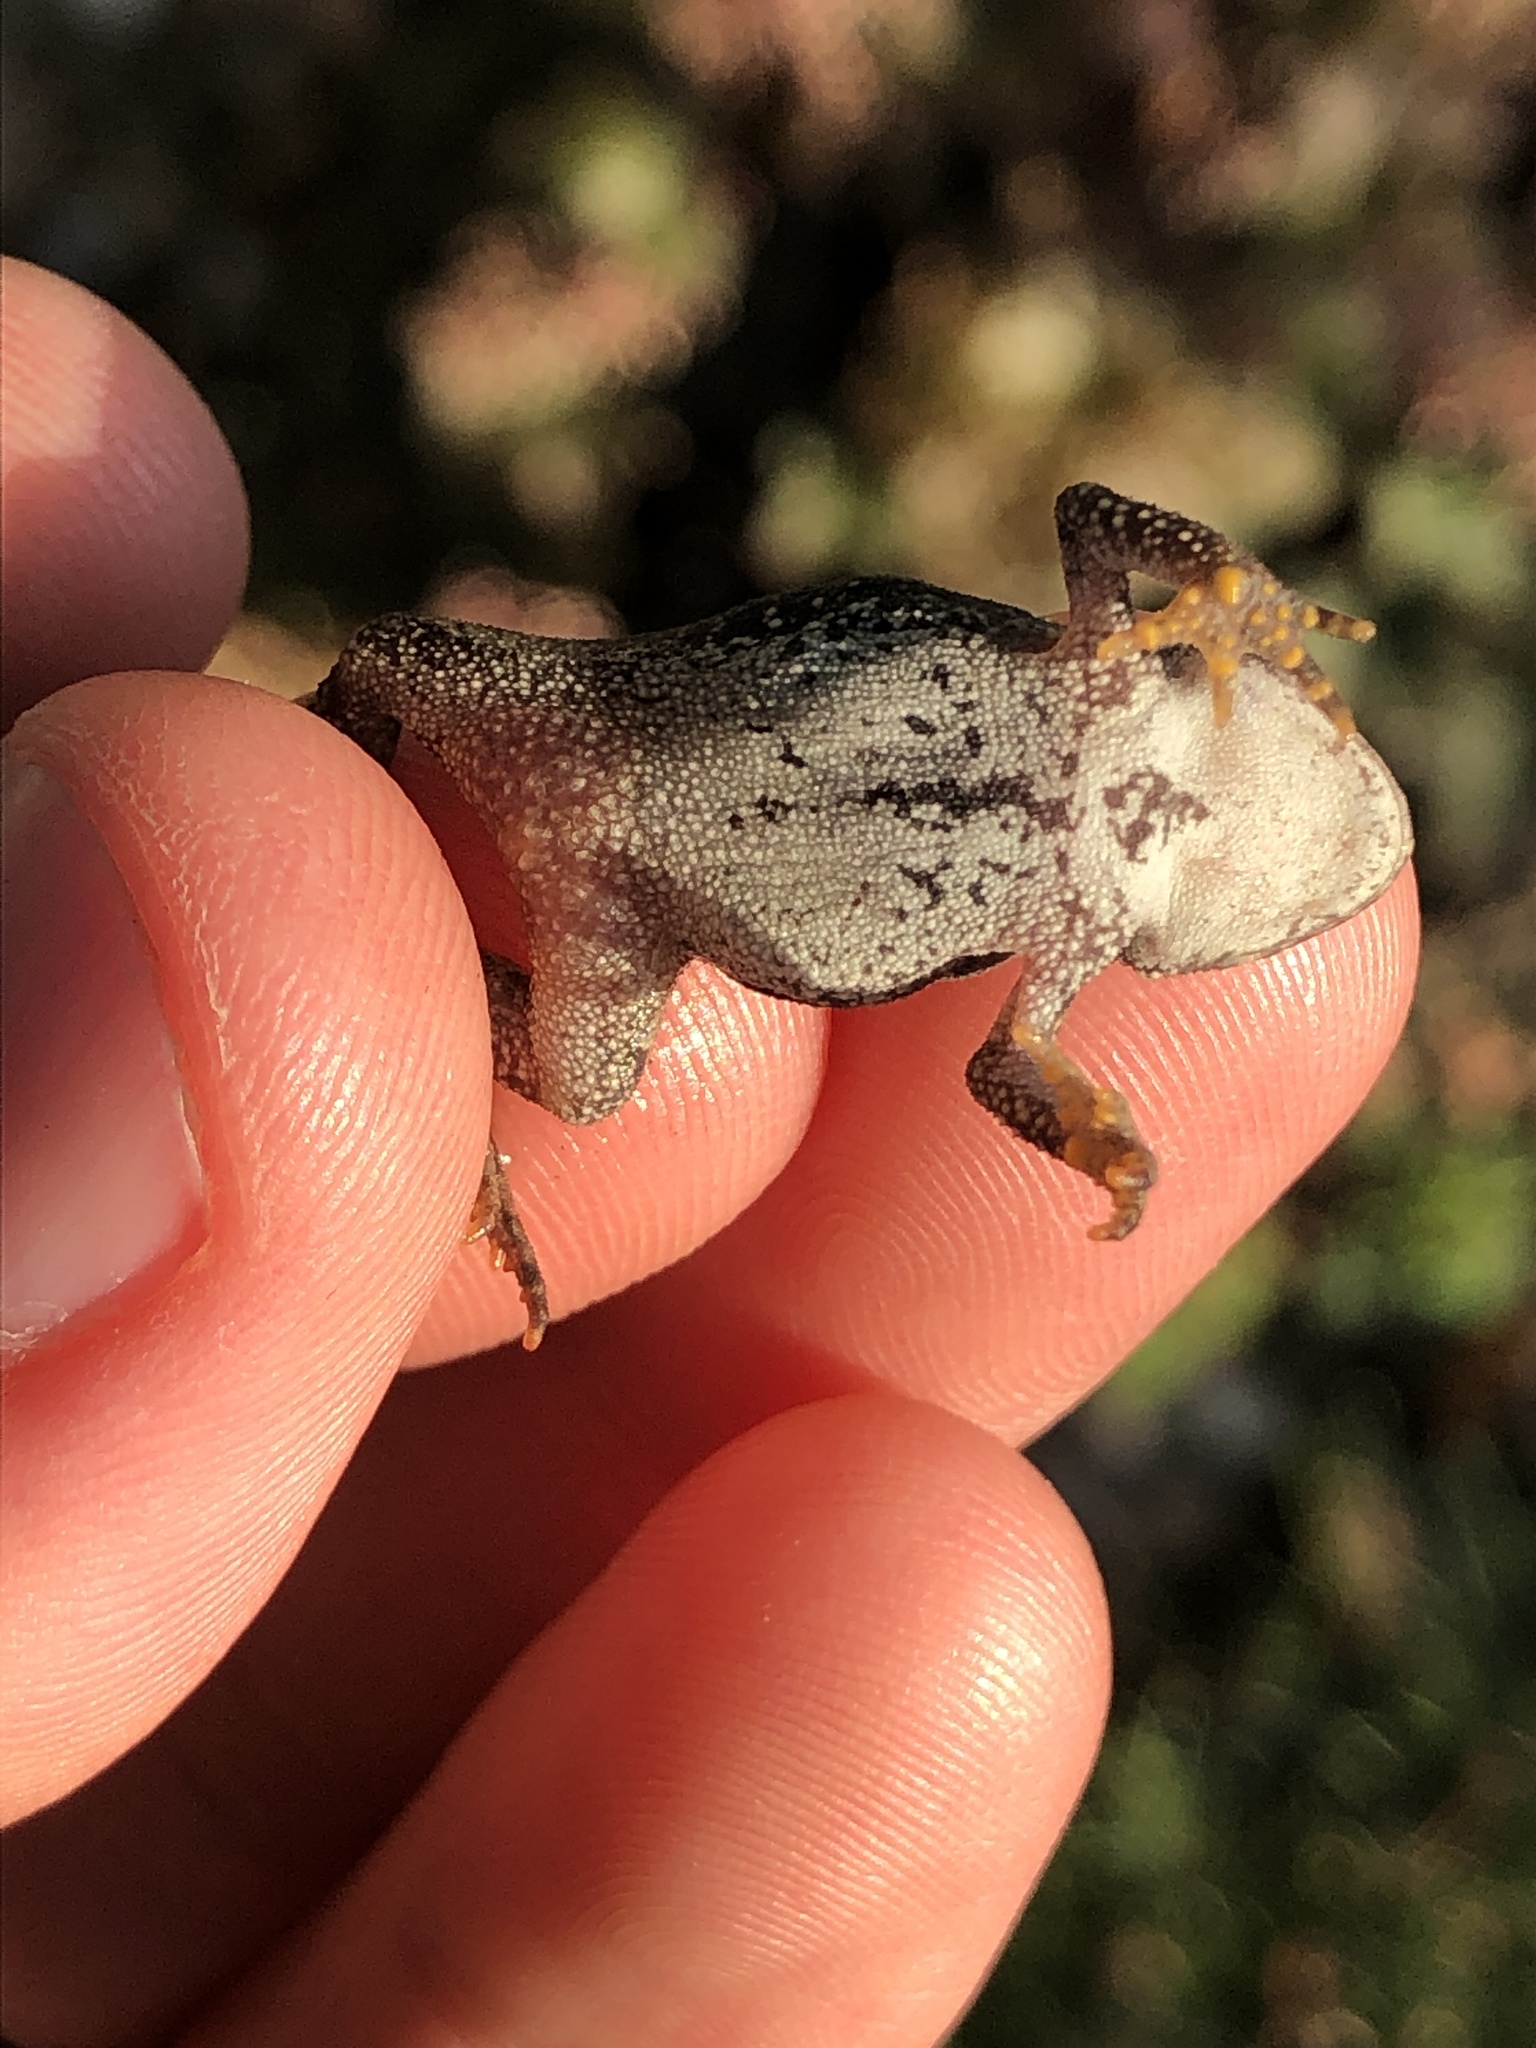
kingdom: Animalia
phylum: Chordata
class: Amphibia
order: Anura
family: Bufonidae
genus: Anaxyrus
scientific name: Anaxyrus americanus
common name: American toad
